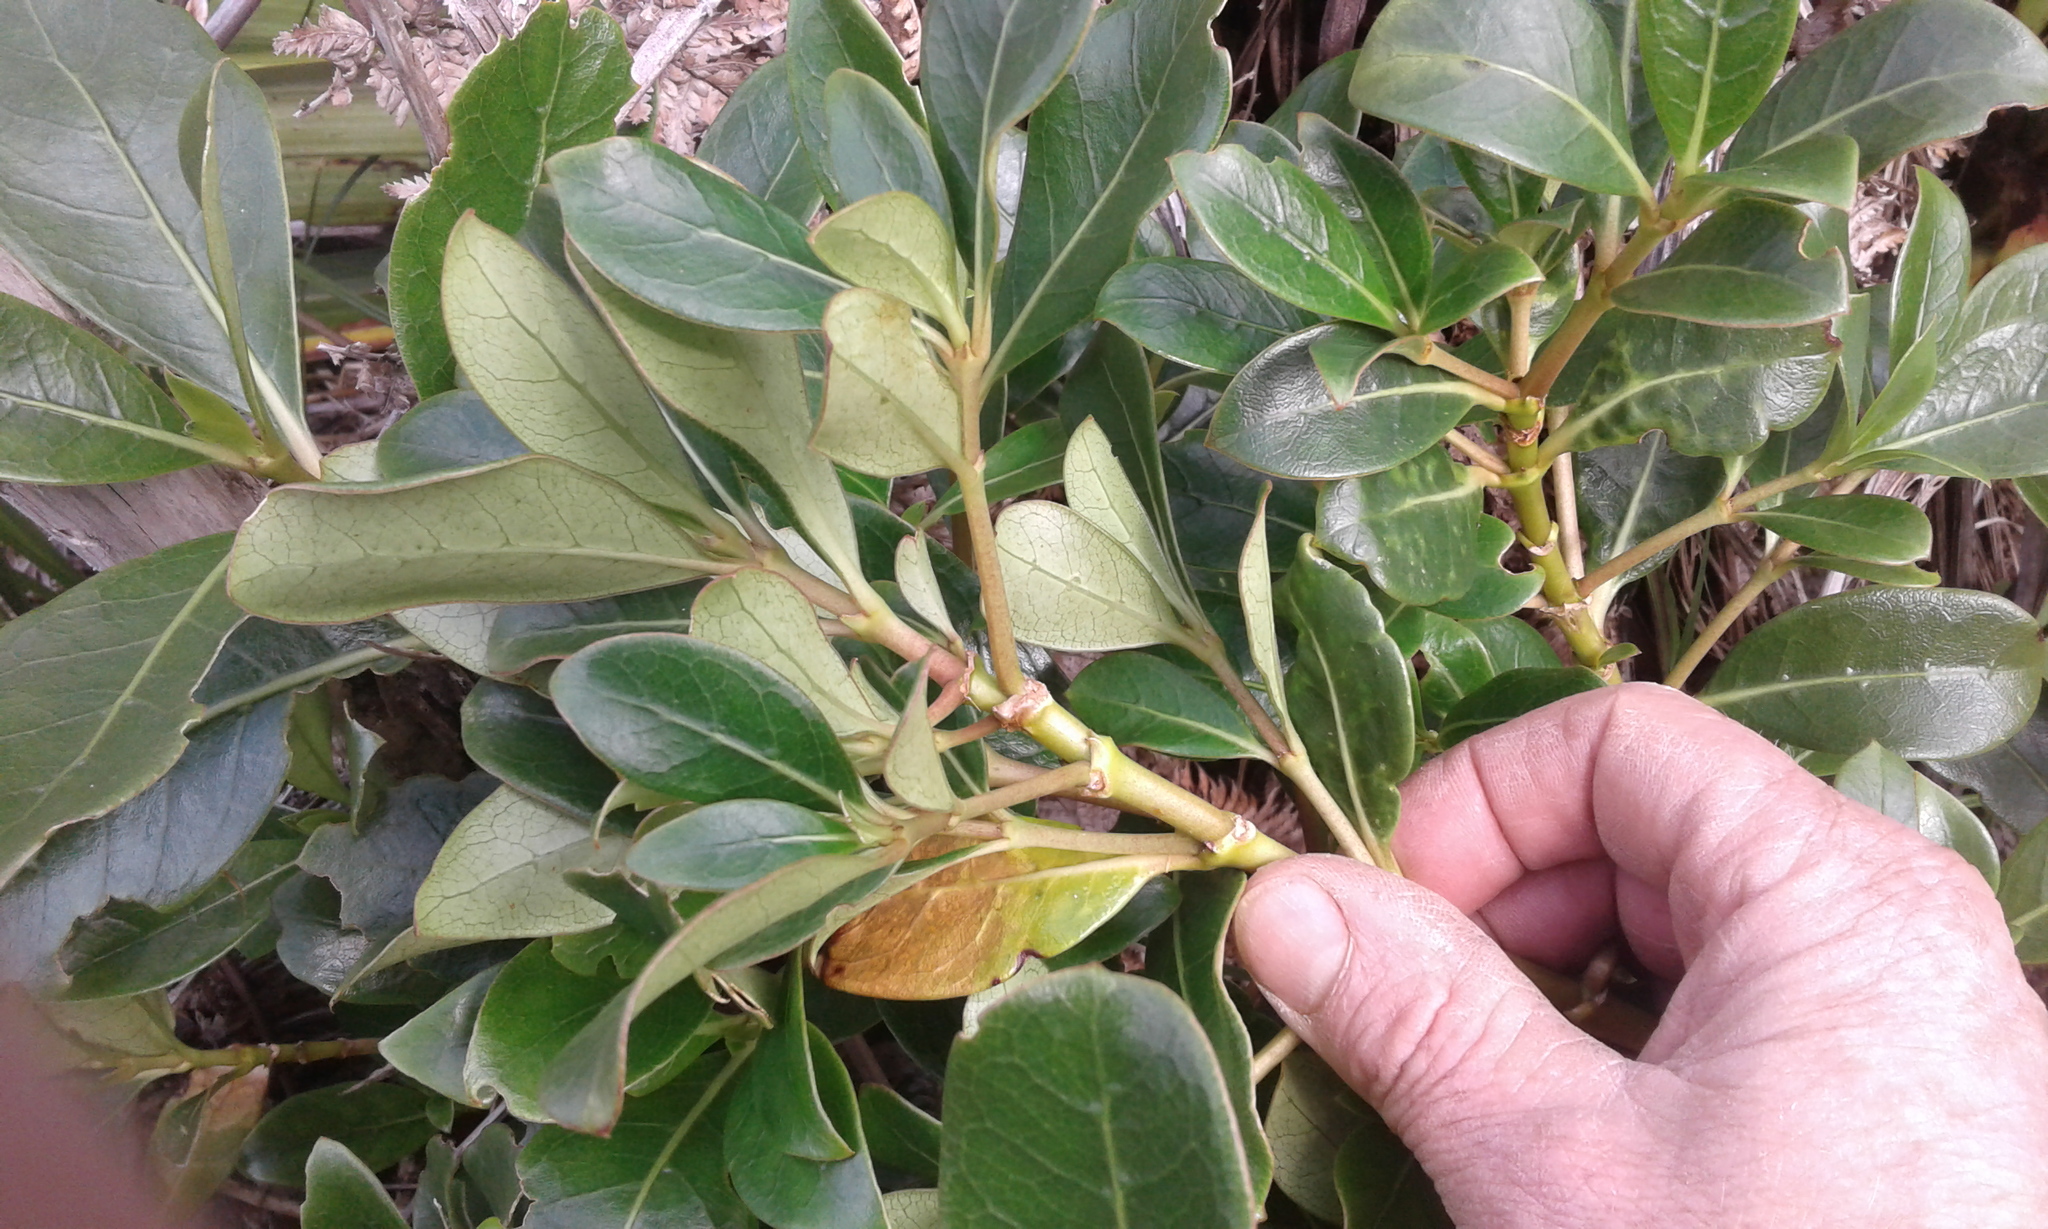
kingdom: Plantae
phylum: Tracheophyta
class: Magnoliopsida
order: Gentianales
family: Rubiaceae
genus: Coprosma
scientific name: Coprosma lucida
